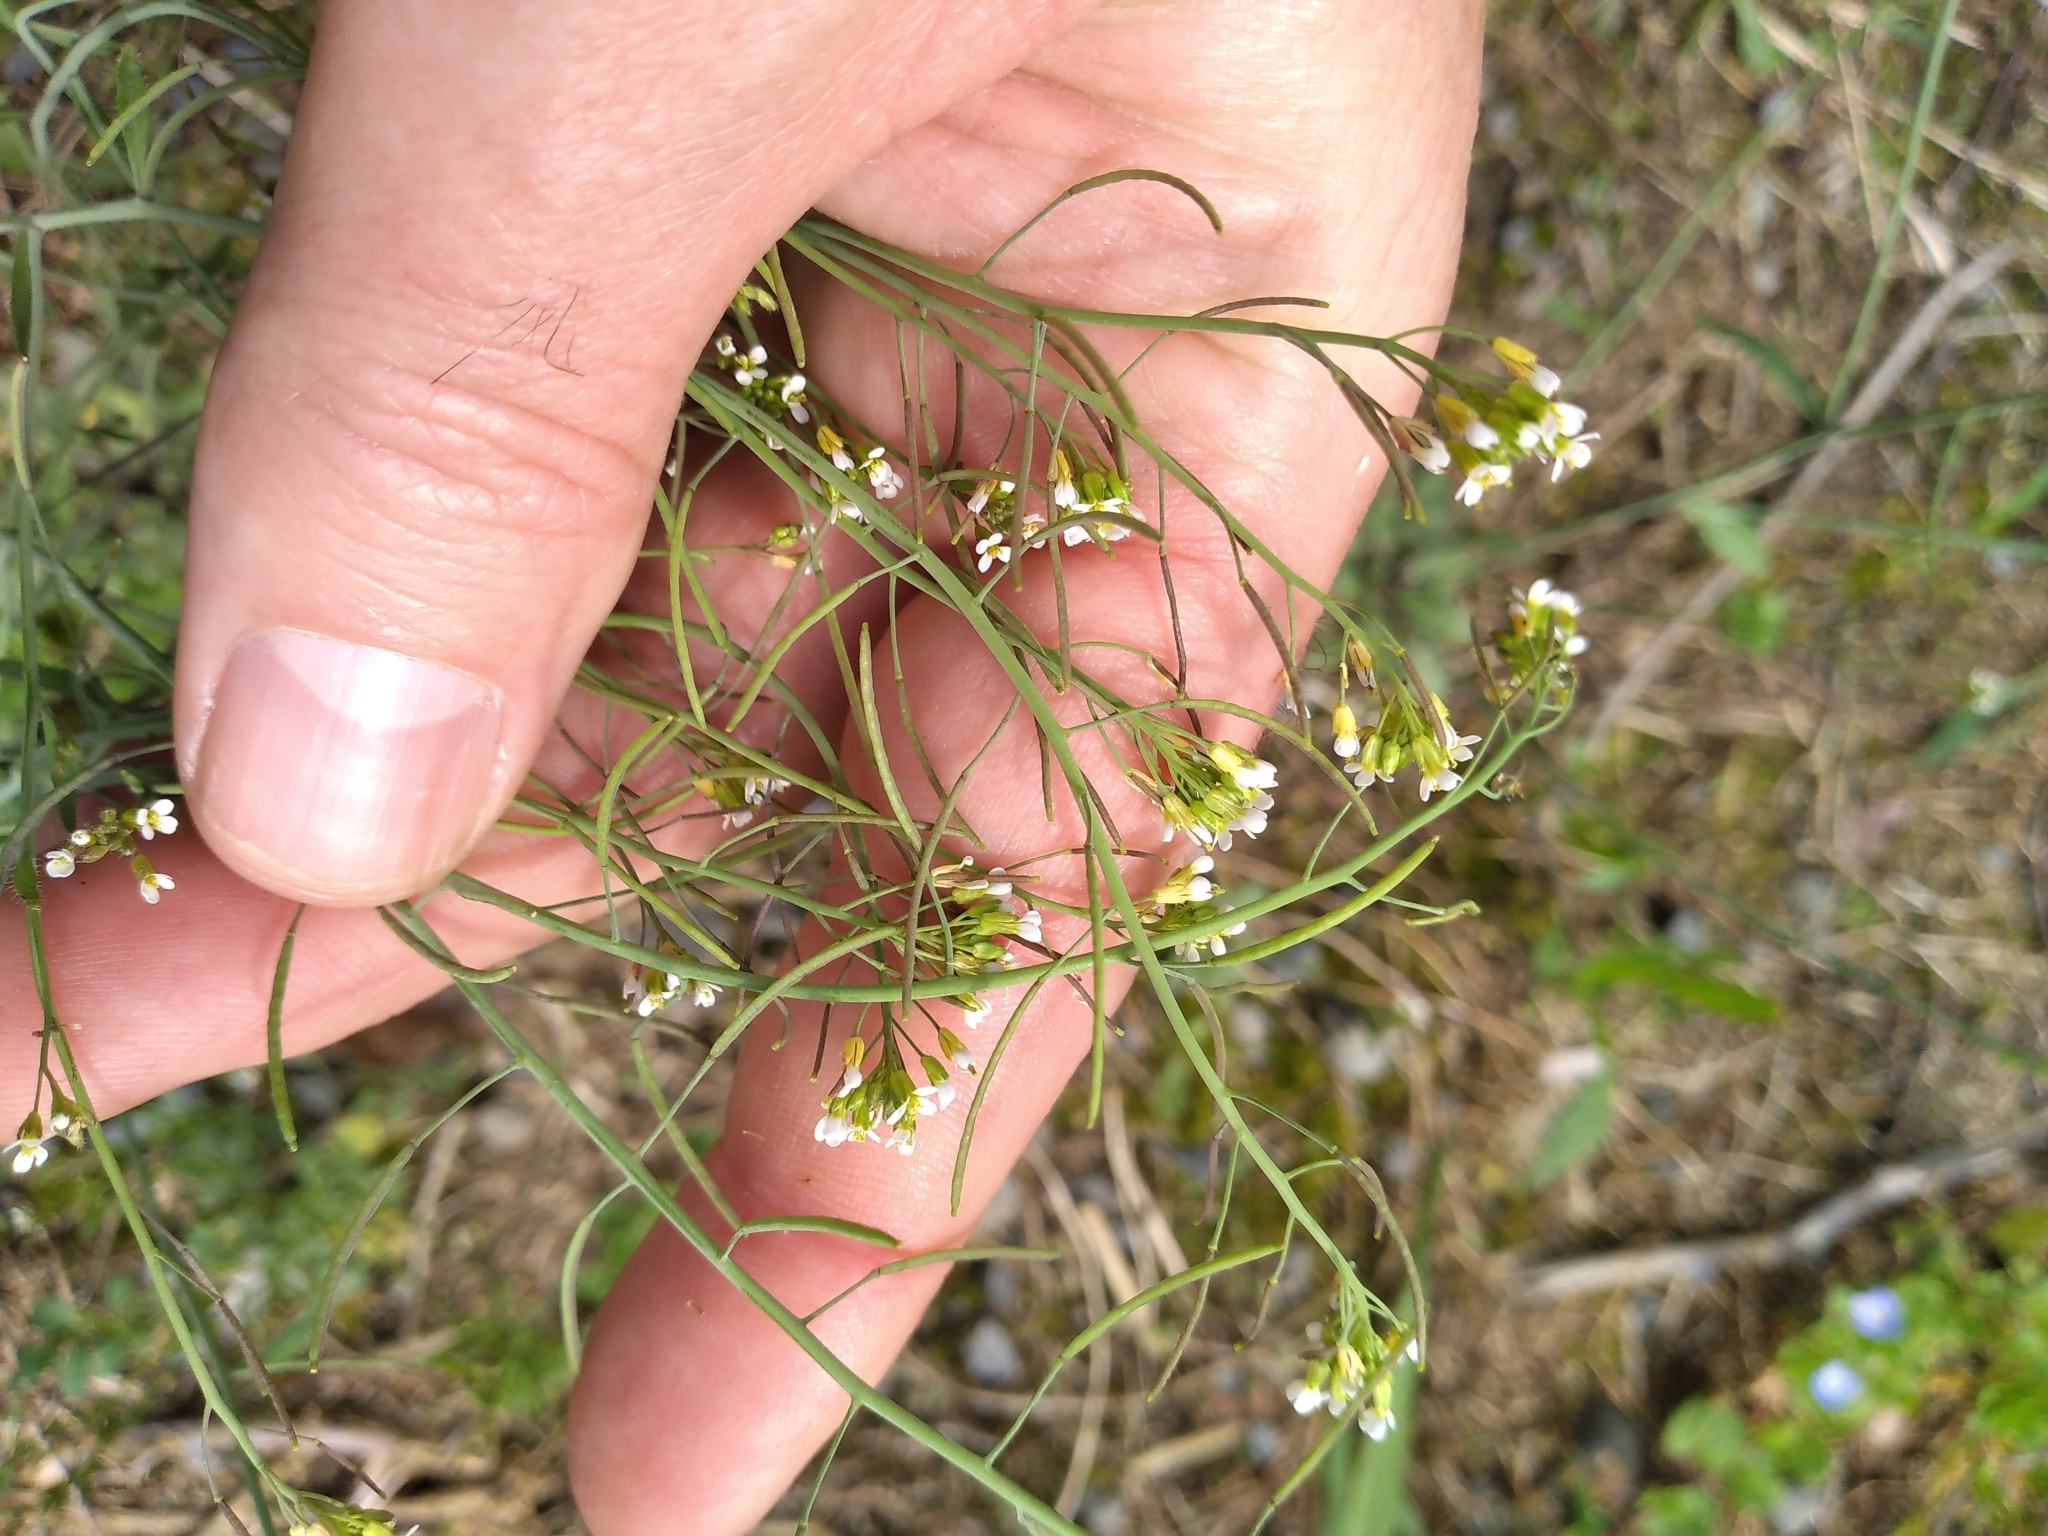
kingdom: Plantae
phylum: Tracheophyta
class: Magnoliopsida
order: Brassicales
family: Brassicaceae
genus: Arabidopsis
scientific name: Arabidopsis thaliana
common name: Thale cress
